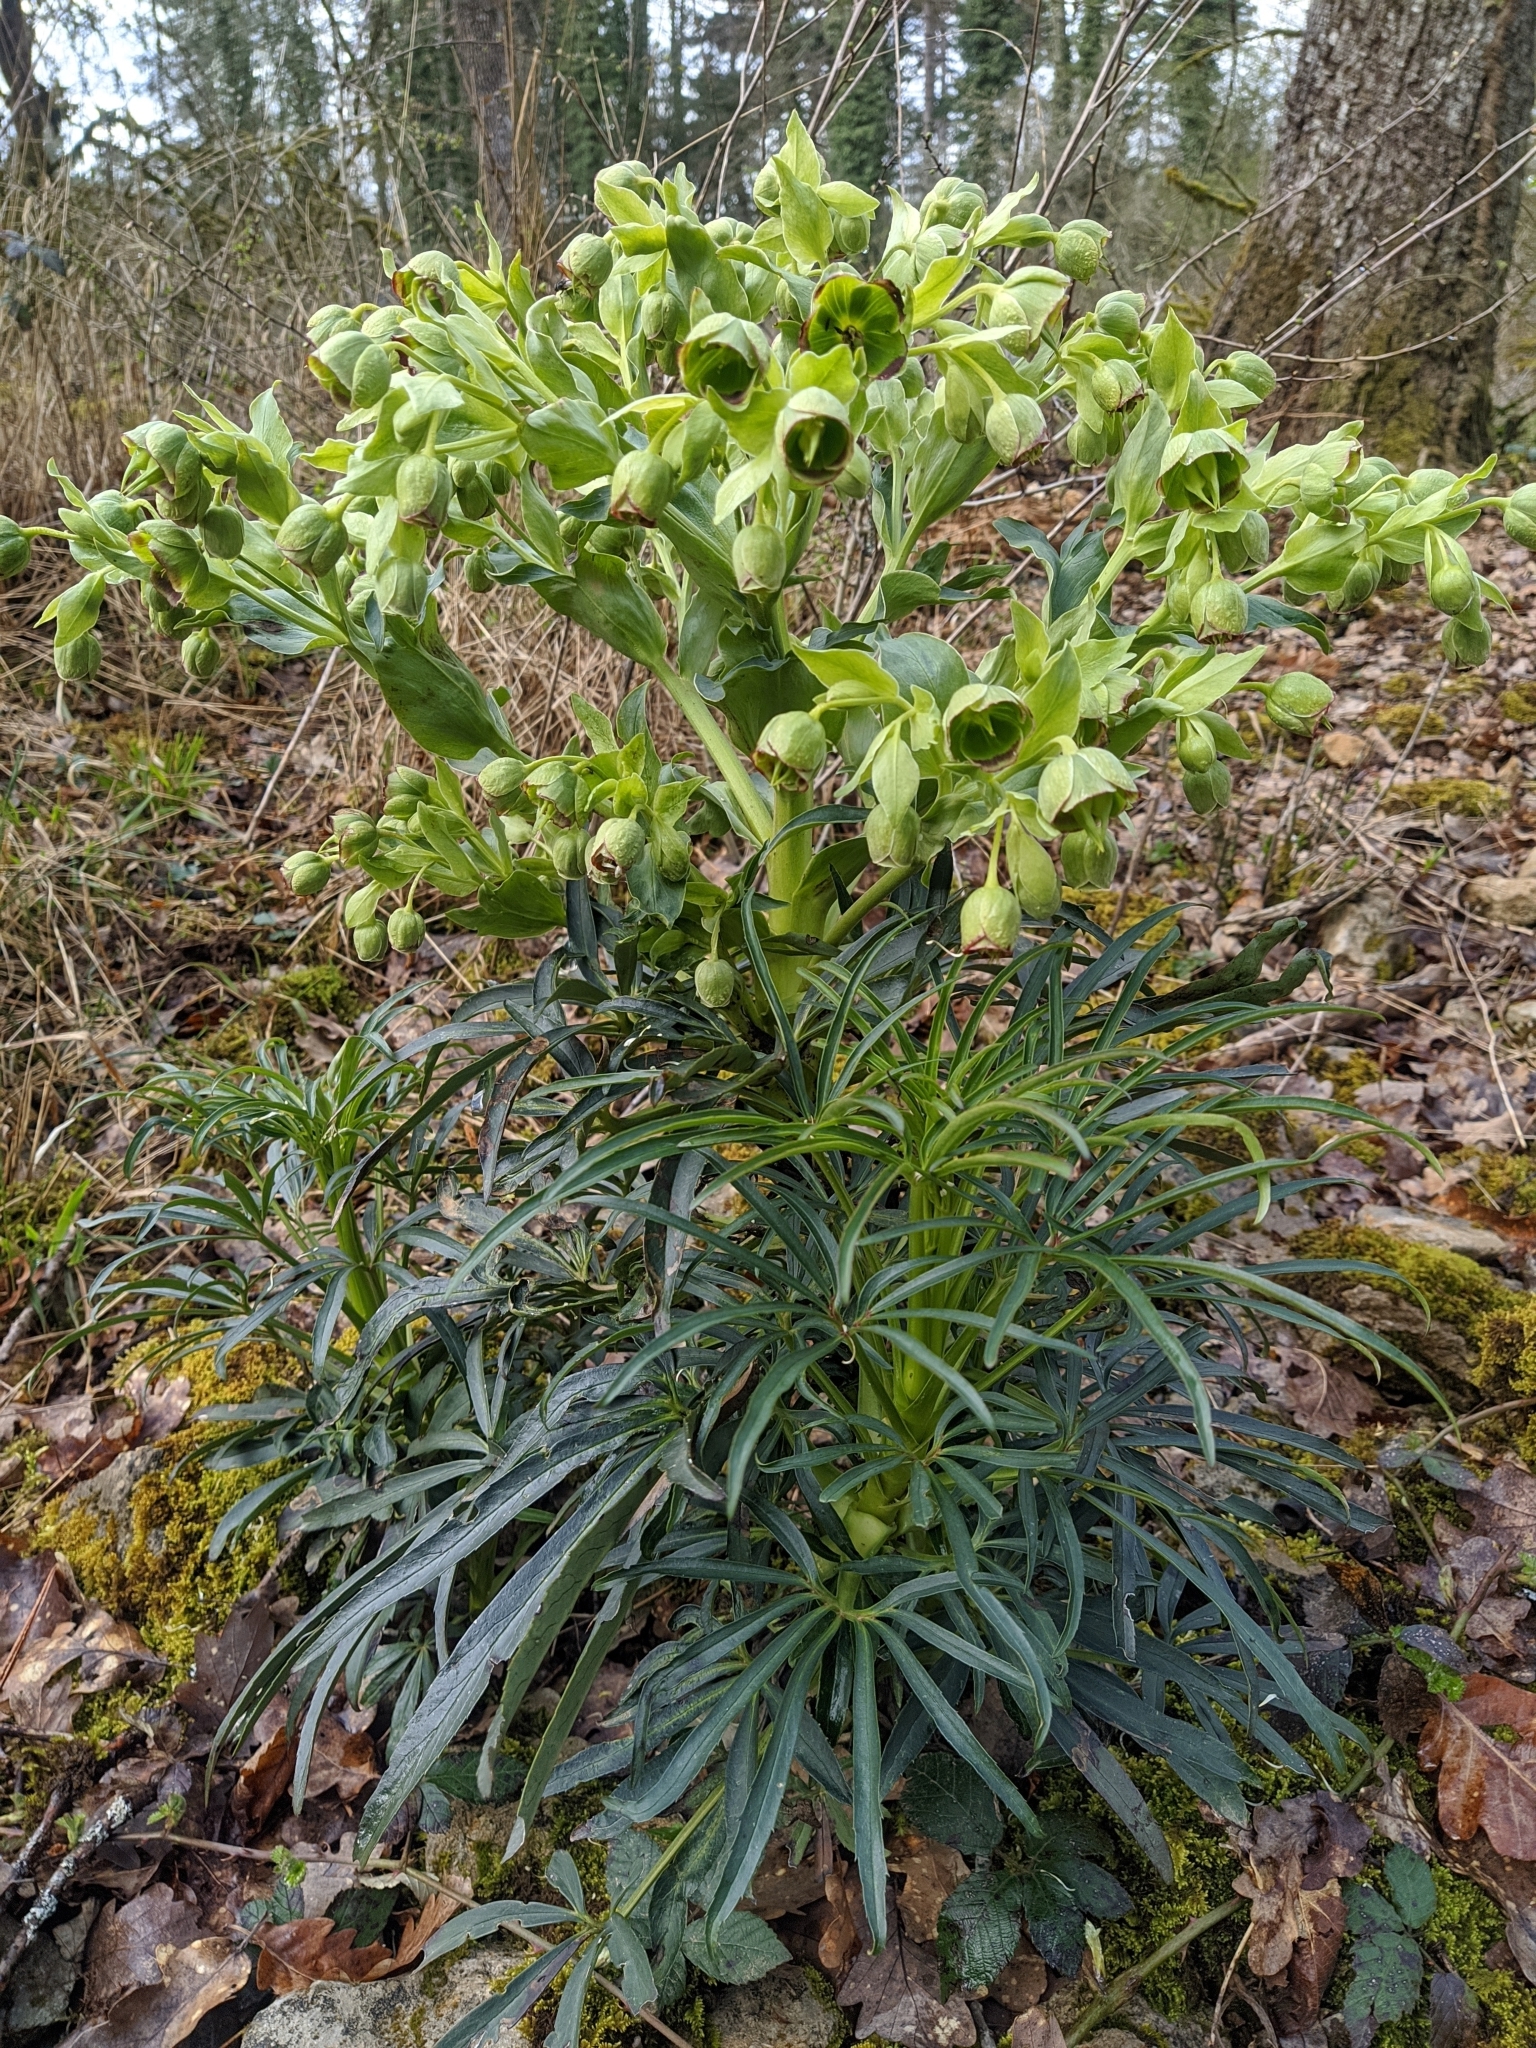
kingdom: Plantae
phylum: Tracheophyta
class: Magnoliopsida
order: Ranunculales
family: Ranunculaceae
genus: Helleborus
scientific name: Helleborus foetidus
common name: Stinking hellebore
